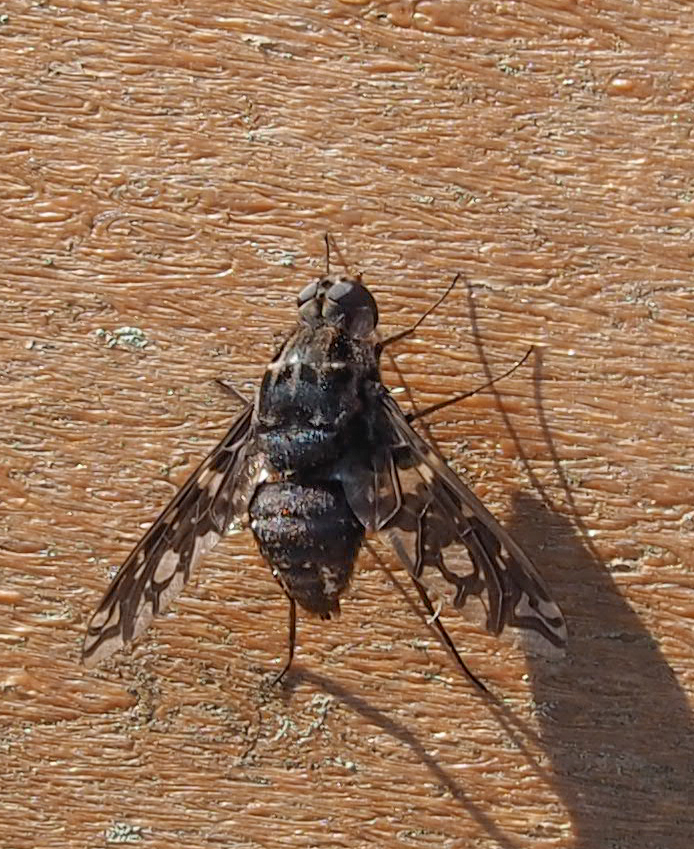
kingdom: Animalia
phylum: Arthropoda
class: Insecta
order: Diptera
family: Bombyliidae
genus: Xenox
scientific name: Xenox tigrinus
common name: Tiger bee fly
